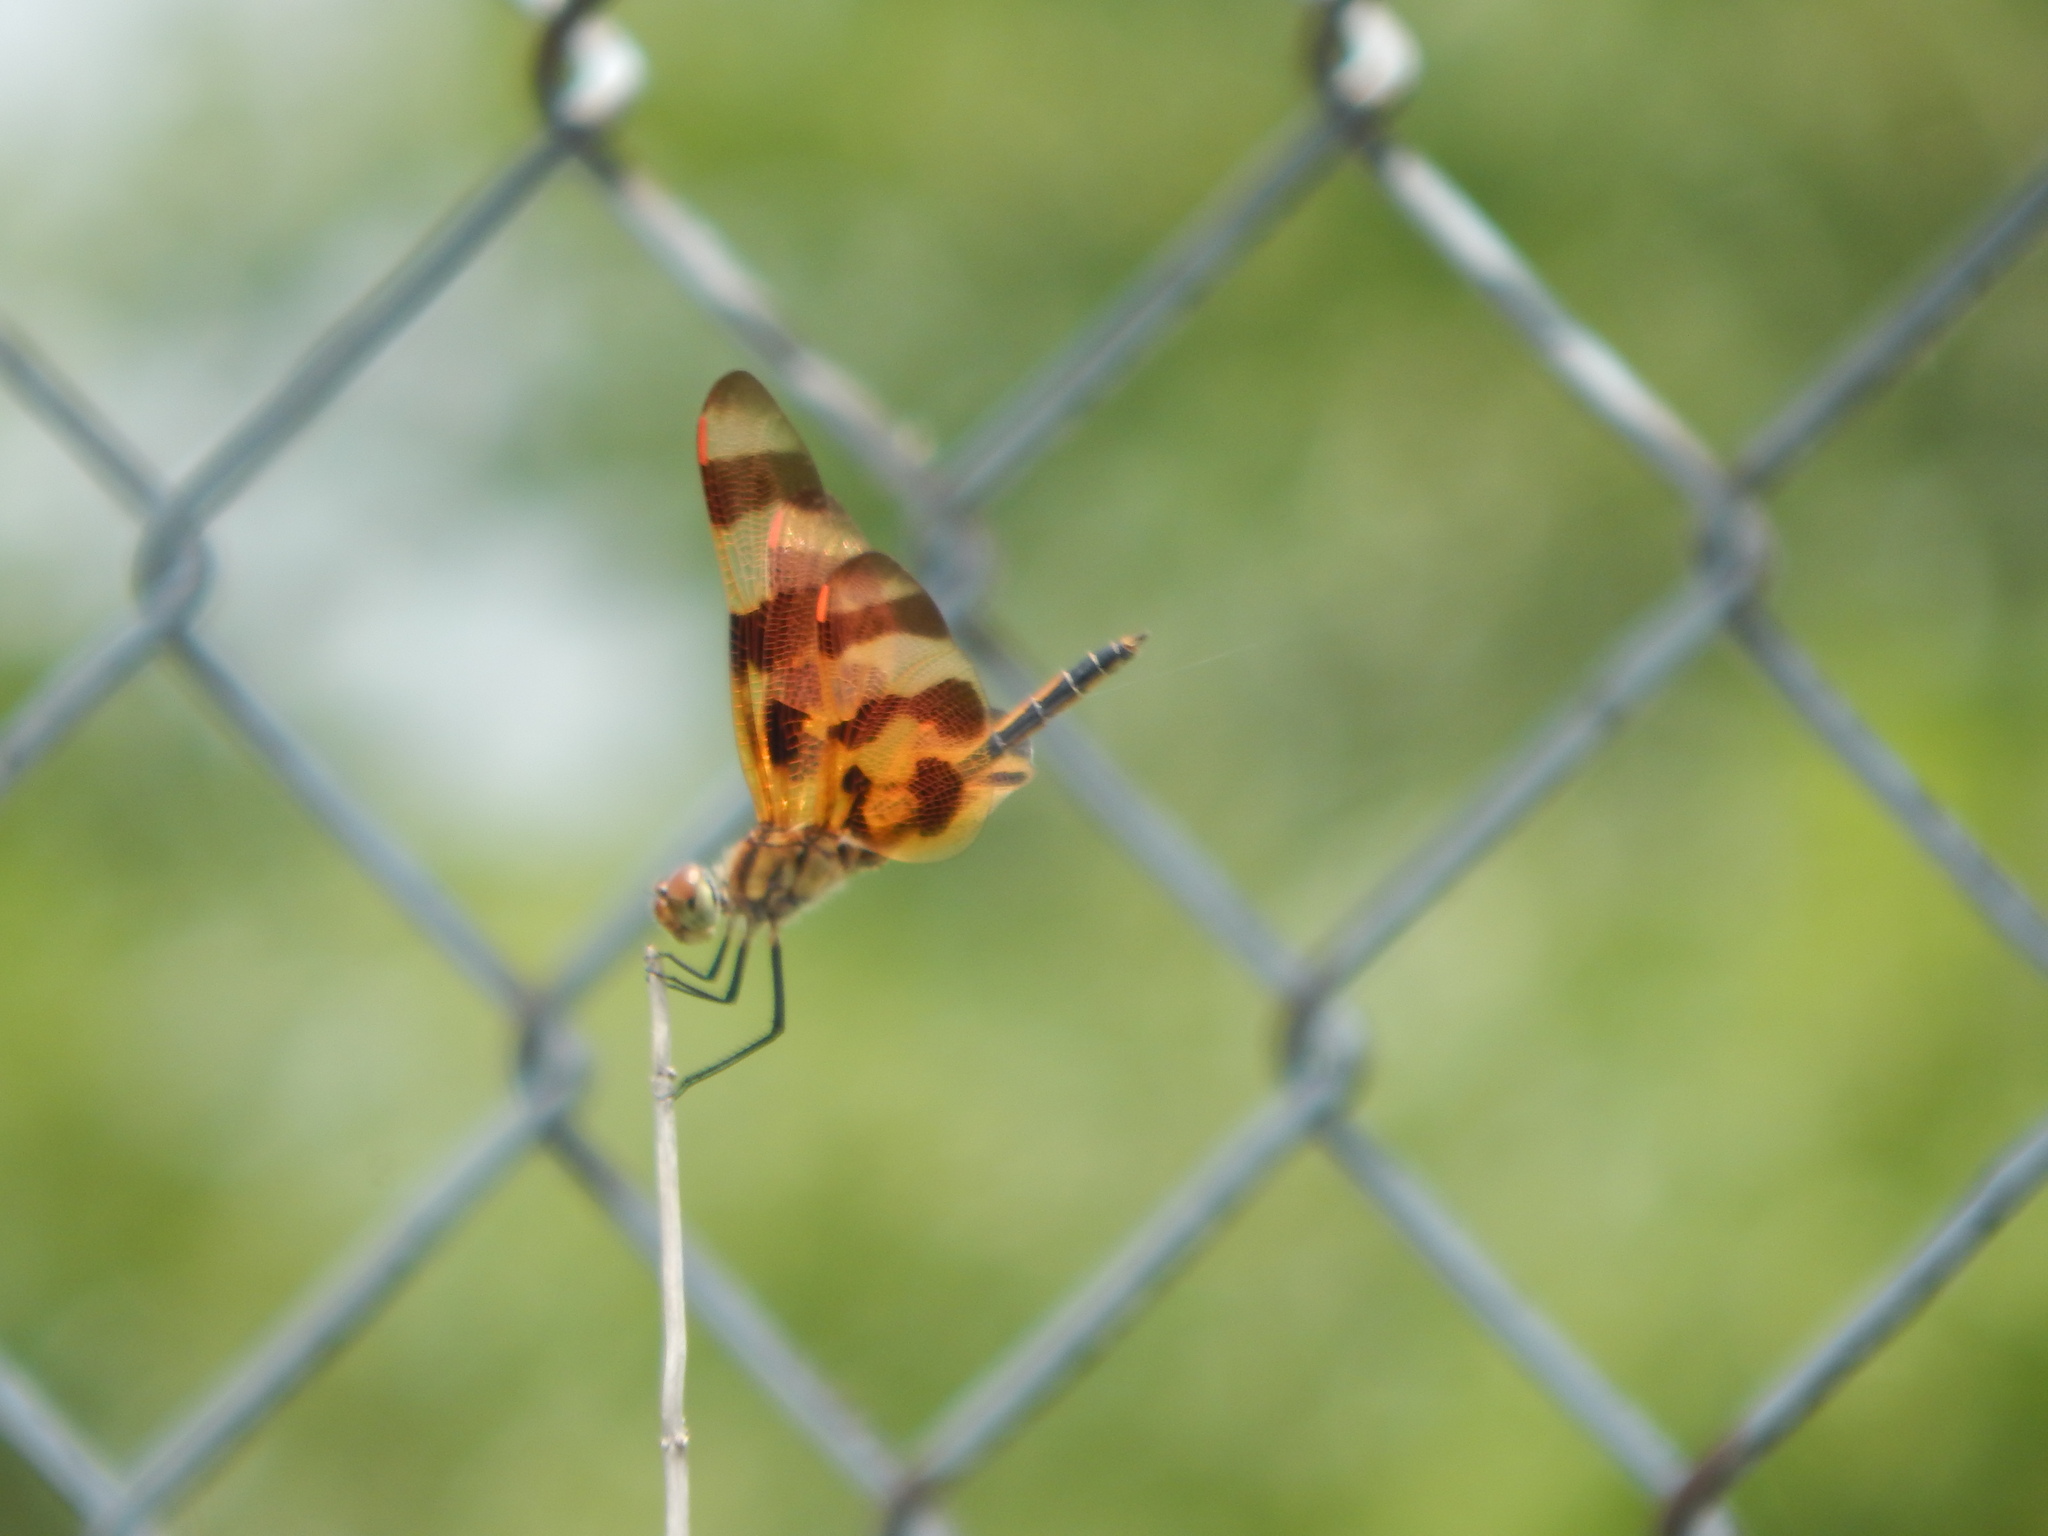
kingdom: Animalia
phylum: Arthropoda
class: Insecta
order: Odonata
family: Libellulidae
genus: Celithemis
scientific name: Celithemis eponina
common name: Halloween pennant
